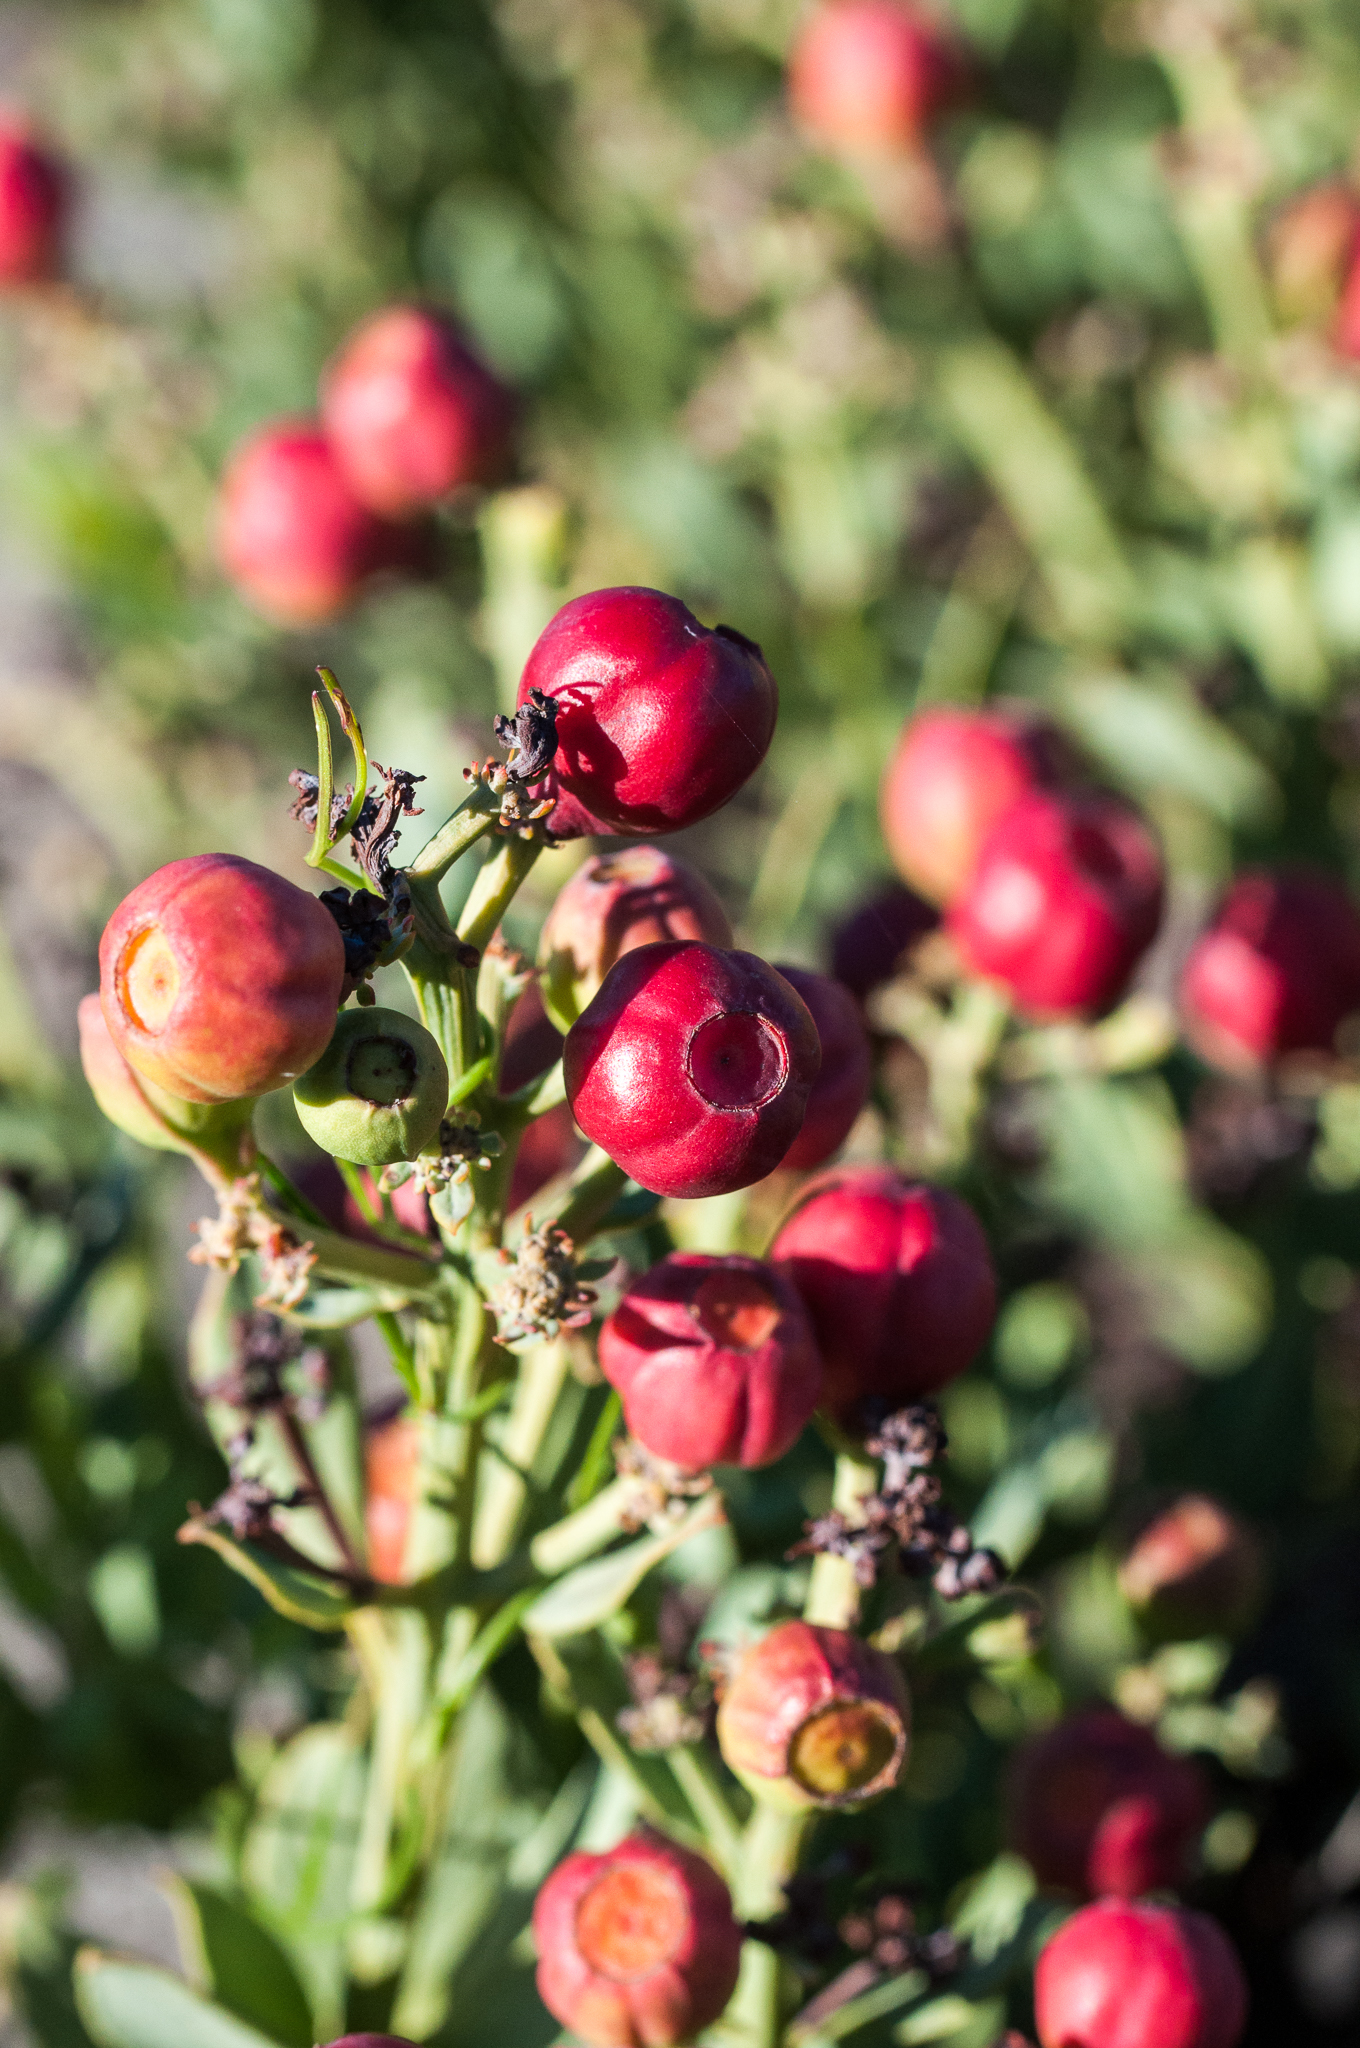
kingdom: Plantae
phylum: Tracheophyta
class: Magnoliopsida
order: Santalales
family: Santalaceae
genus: Osyris
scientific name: Osyris speciosa
